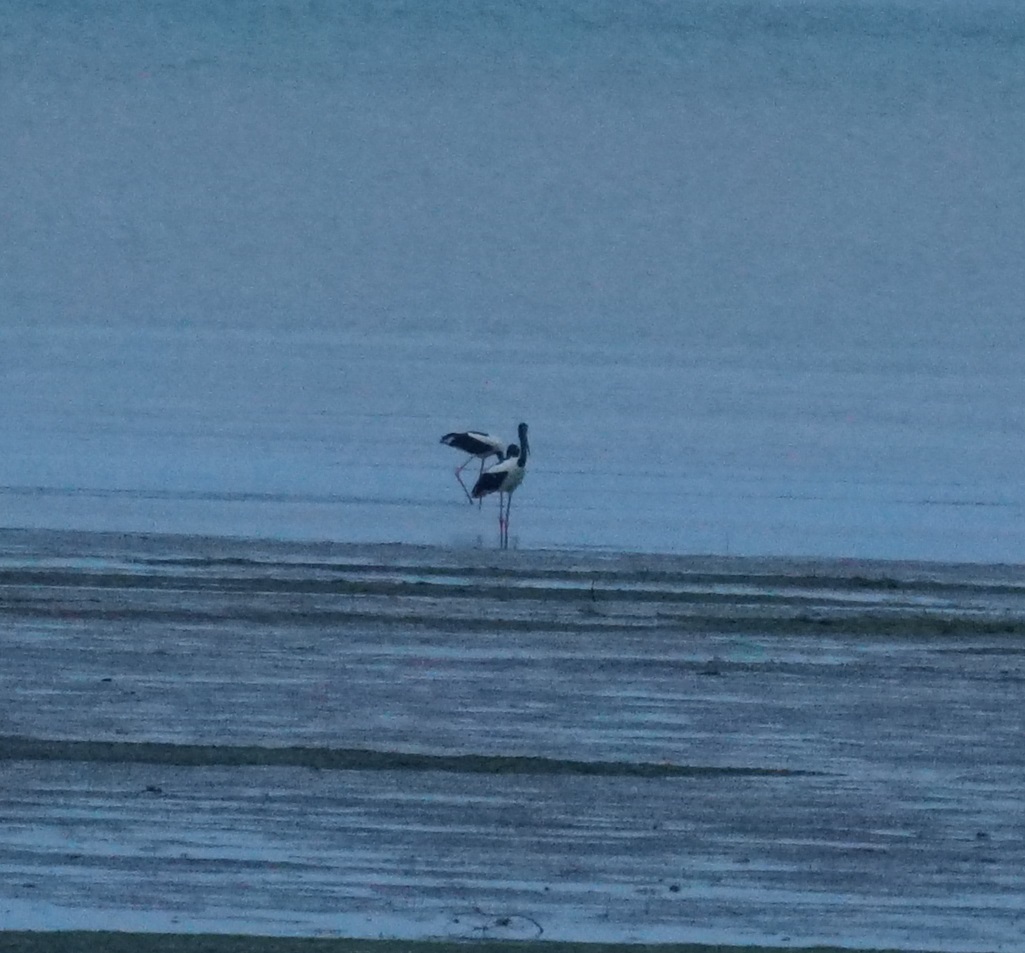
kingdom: Animalia
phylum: Chordata
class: Aves
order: Ciconiiformes
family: Ciconiidae
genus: Ephippiorhynchus
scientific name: Ephippiorhynchus asiaticus
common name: Black-necked stork
